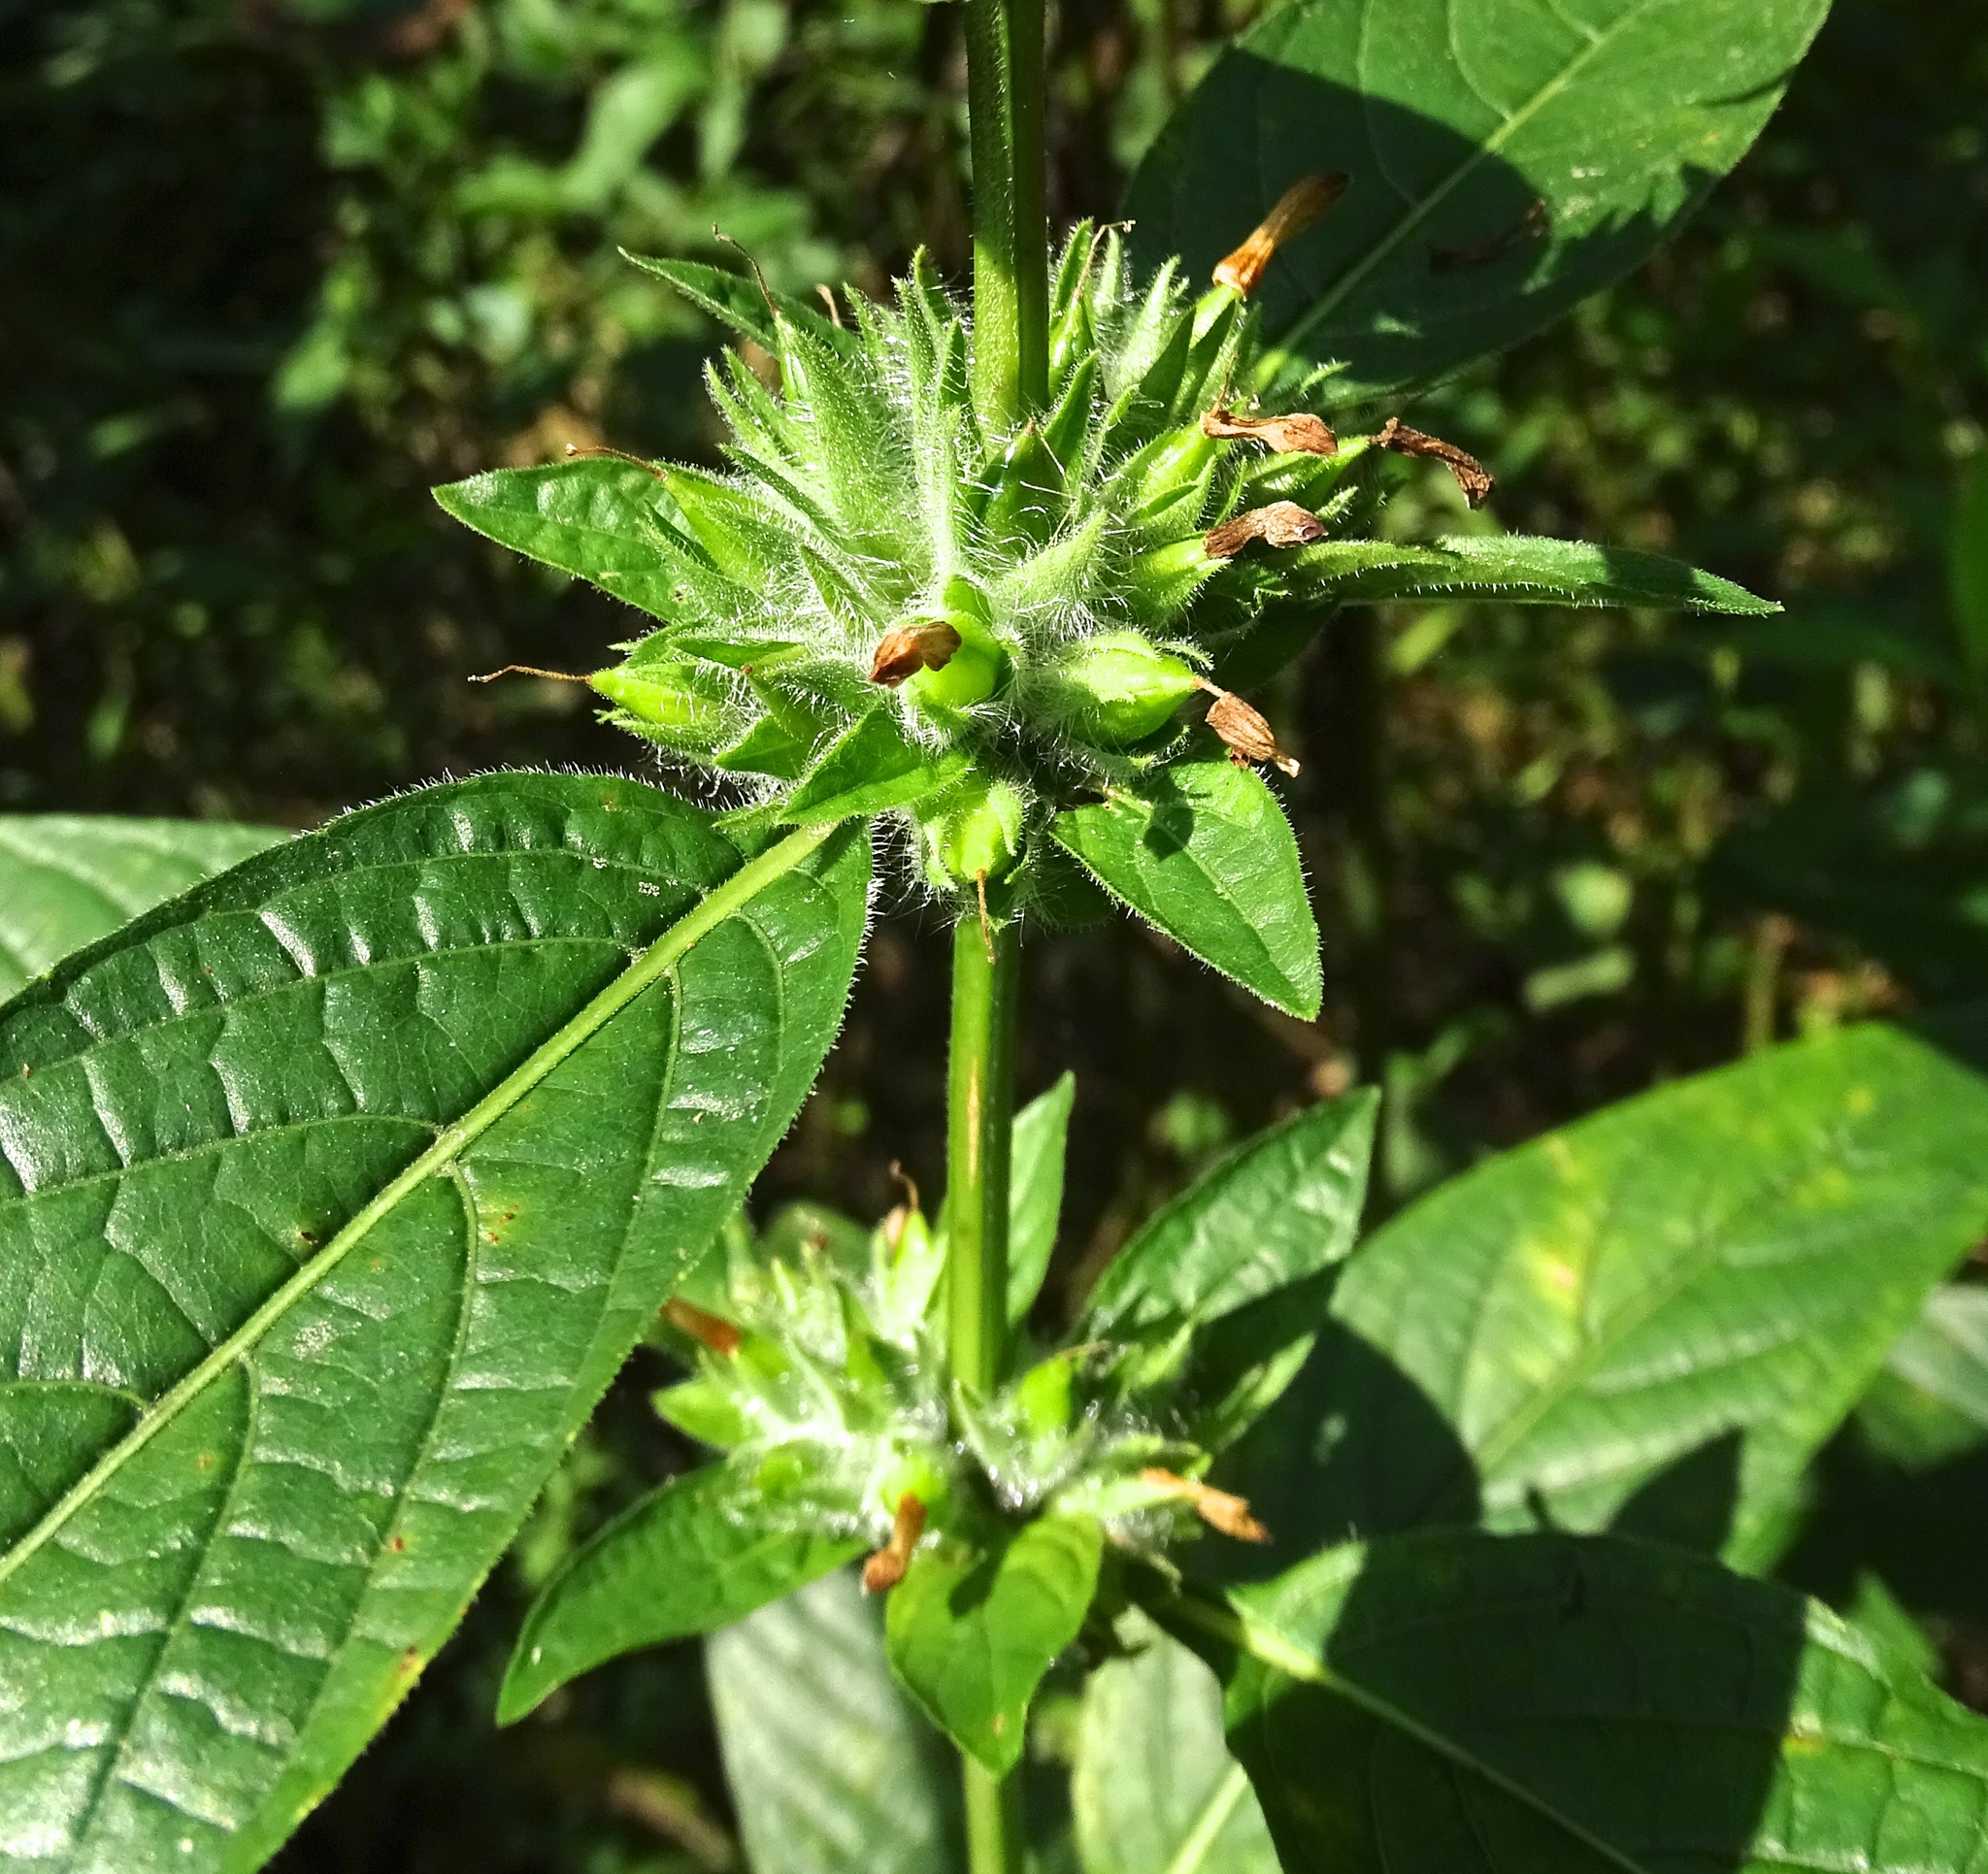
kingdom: Plantae
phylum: Tracheophyta
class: Magnoliopsida
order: Lamiales
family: Acanthaceae
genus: Ruellia
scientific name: Ruellia strepens
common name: Limestone wild petunia
